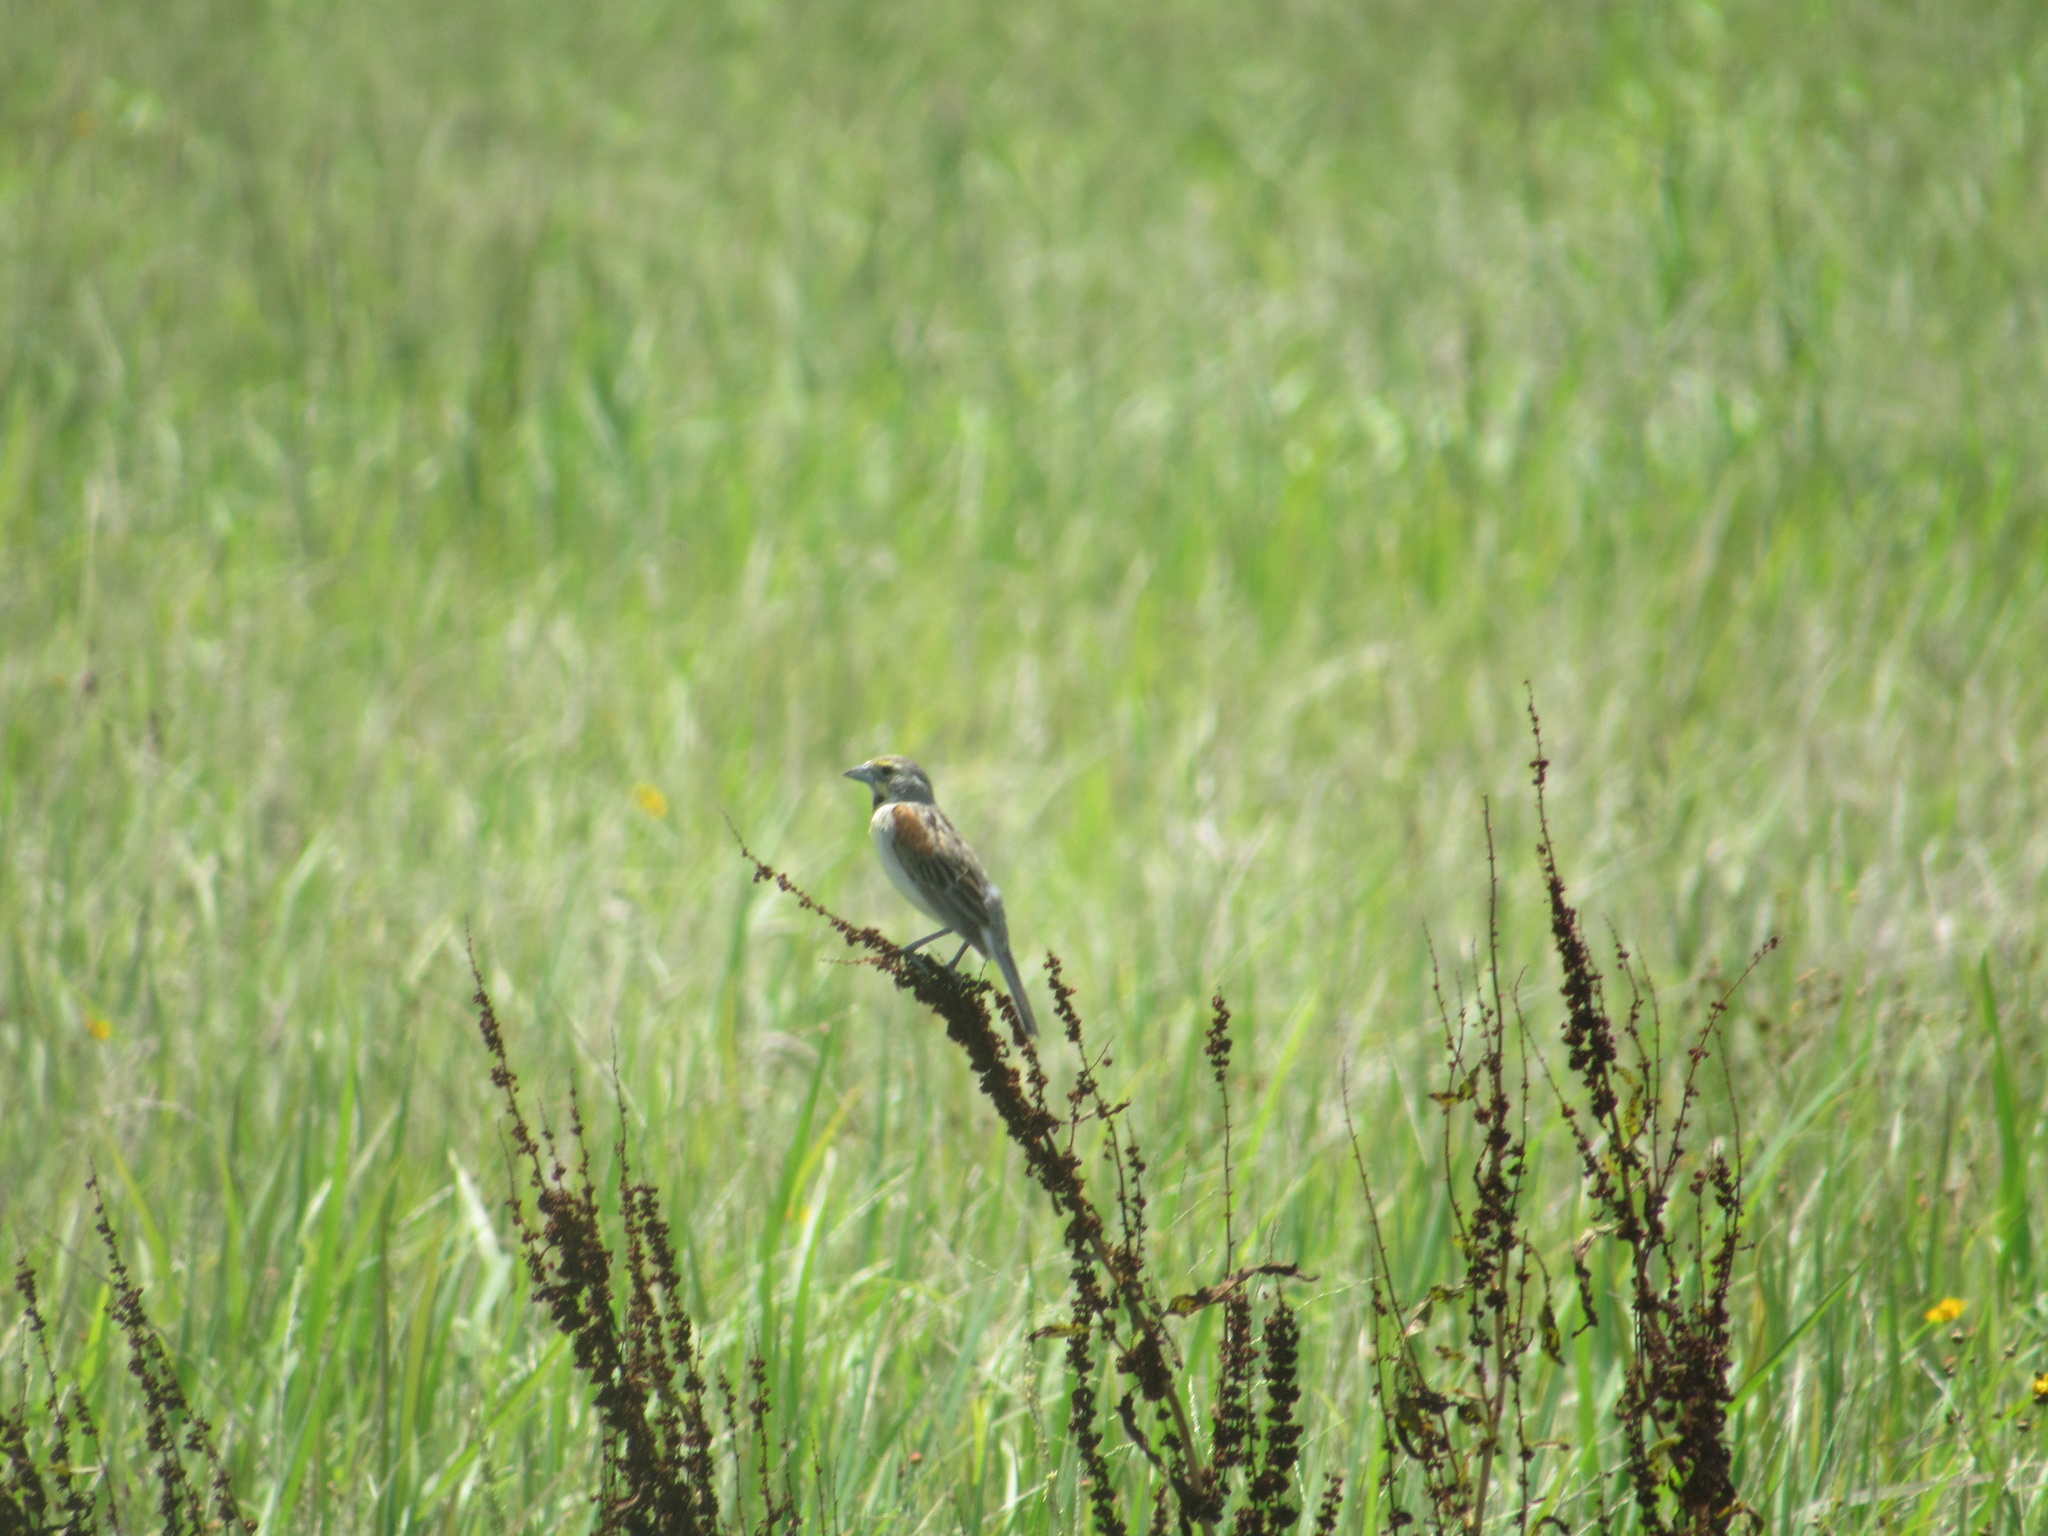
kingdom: Animalia
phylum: Chordata
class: Aves
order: Passeriformes
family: Cardinalidae
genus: Spiza
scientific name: Spiza americana
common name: Dickcissel
